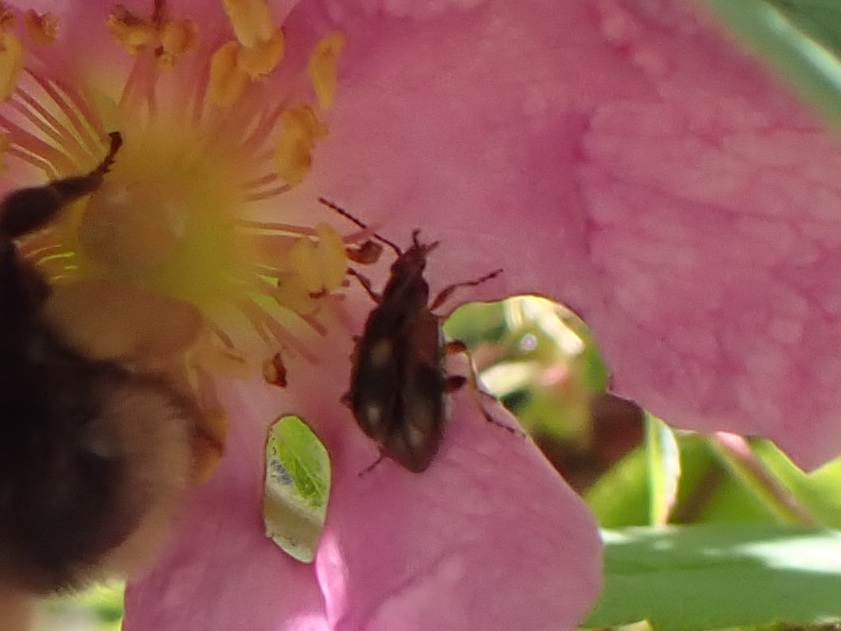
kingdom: Animalia
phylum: Arthropoda
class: Insecta
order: Coleoptera
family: Orsodacnidae
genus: Orsodacne
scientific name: Orsodacne atra
